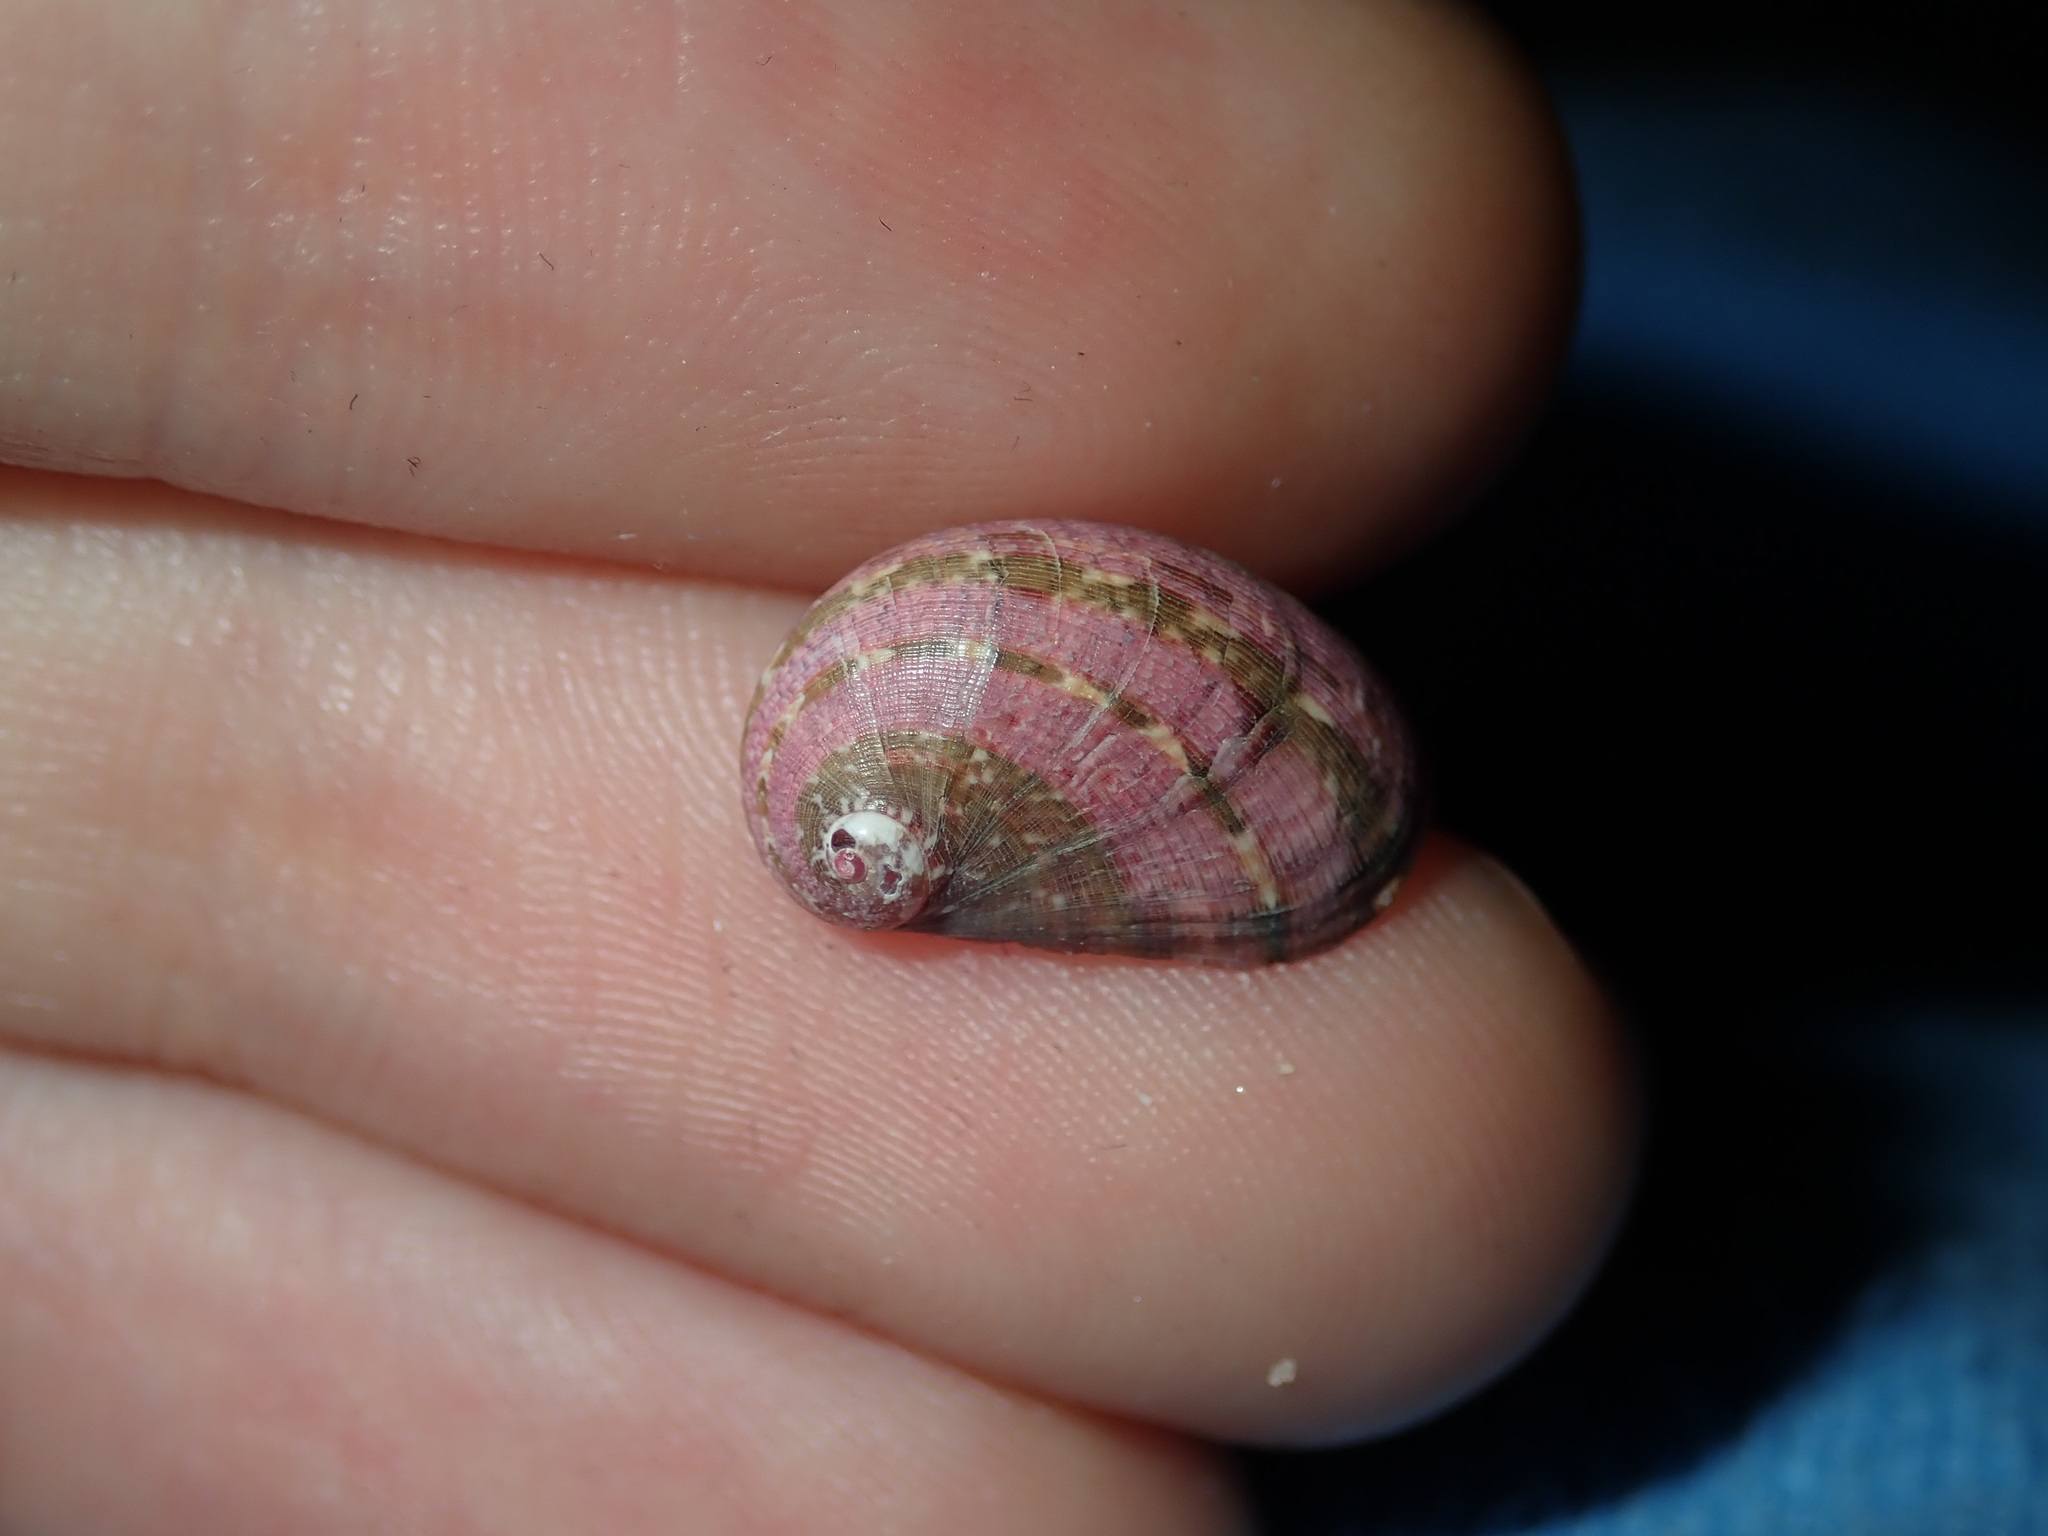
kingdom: Animalia
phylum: Mollusca
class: Gastropoda
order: Trochida
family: Trochidae
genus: Stomatella
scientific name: Stomatella impertusa
